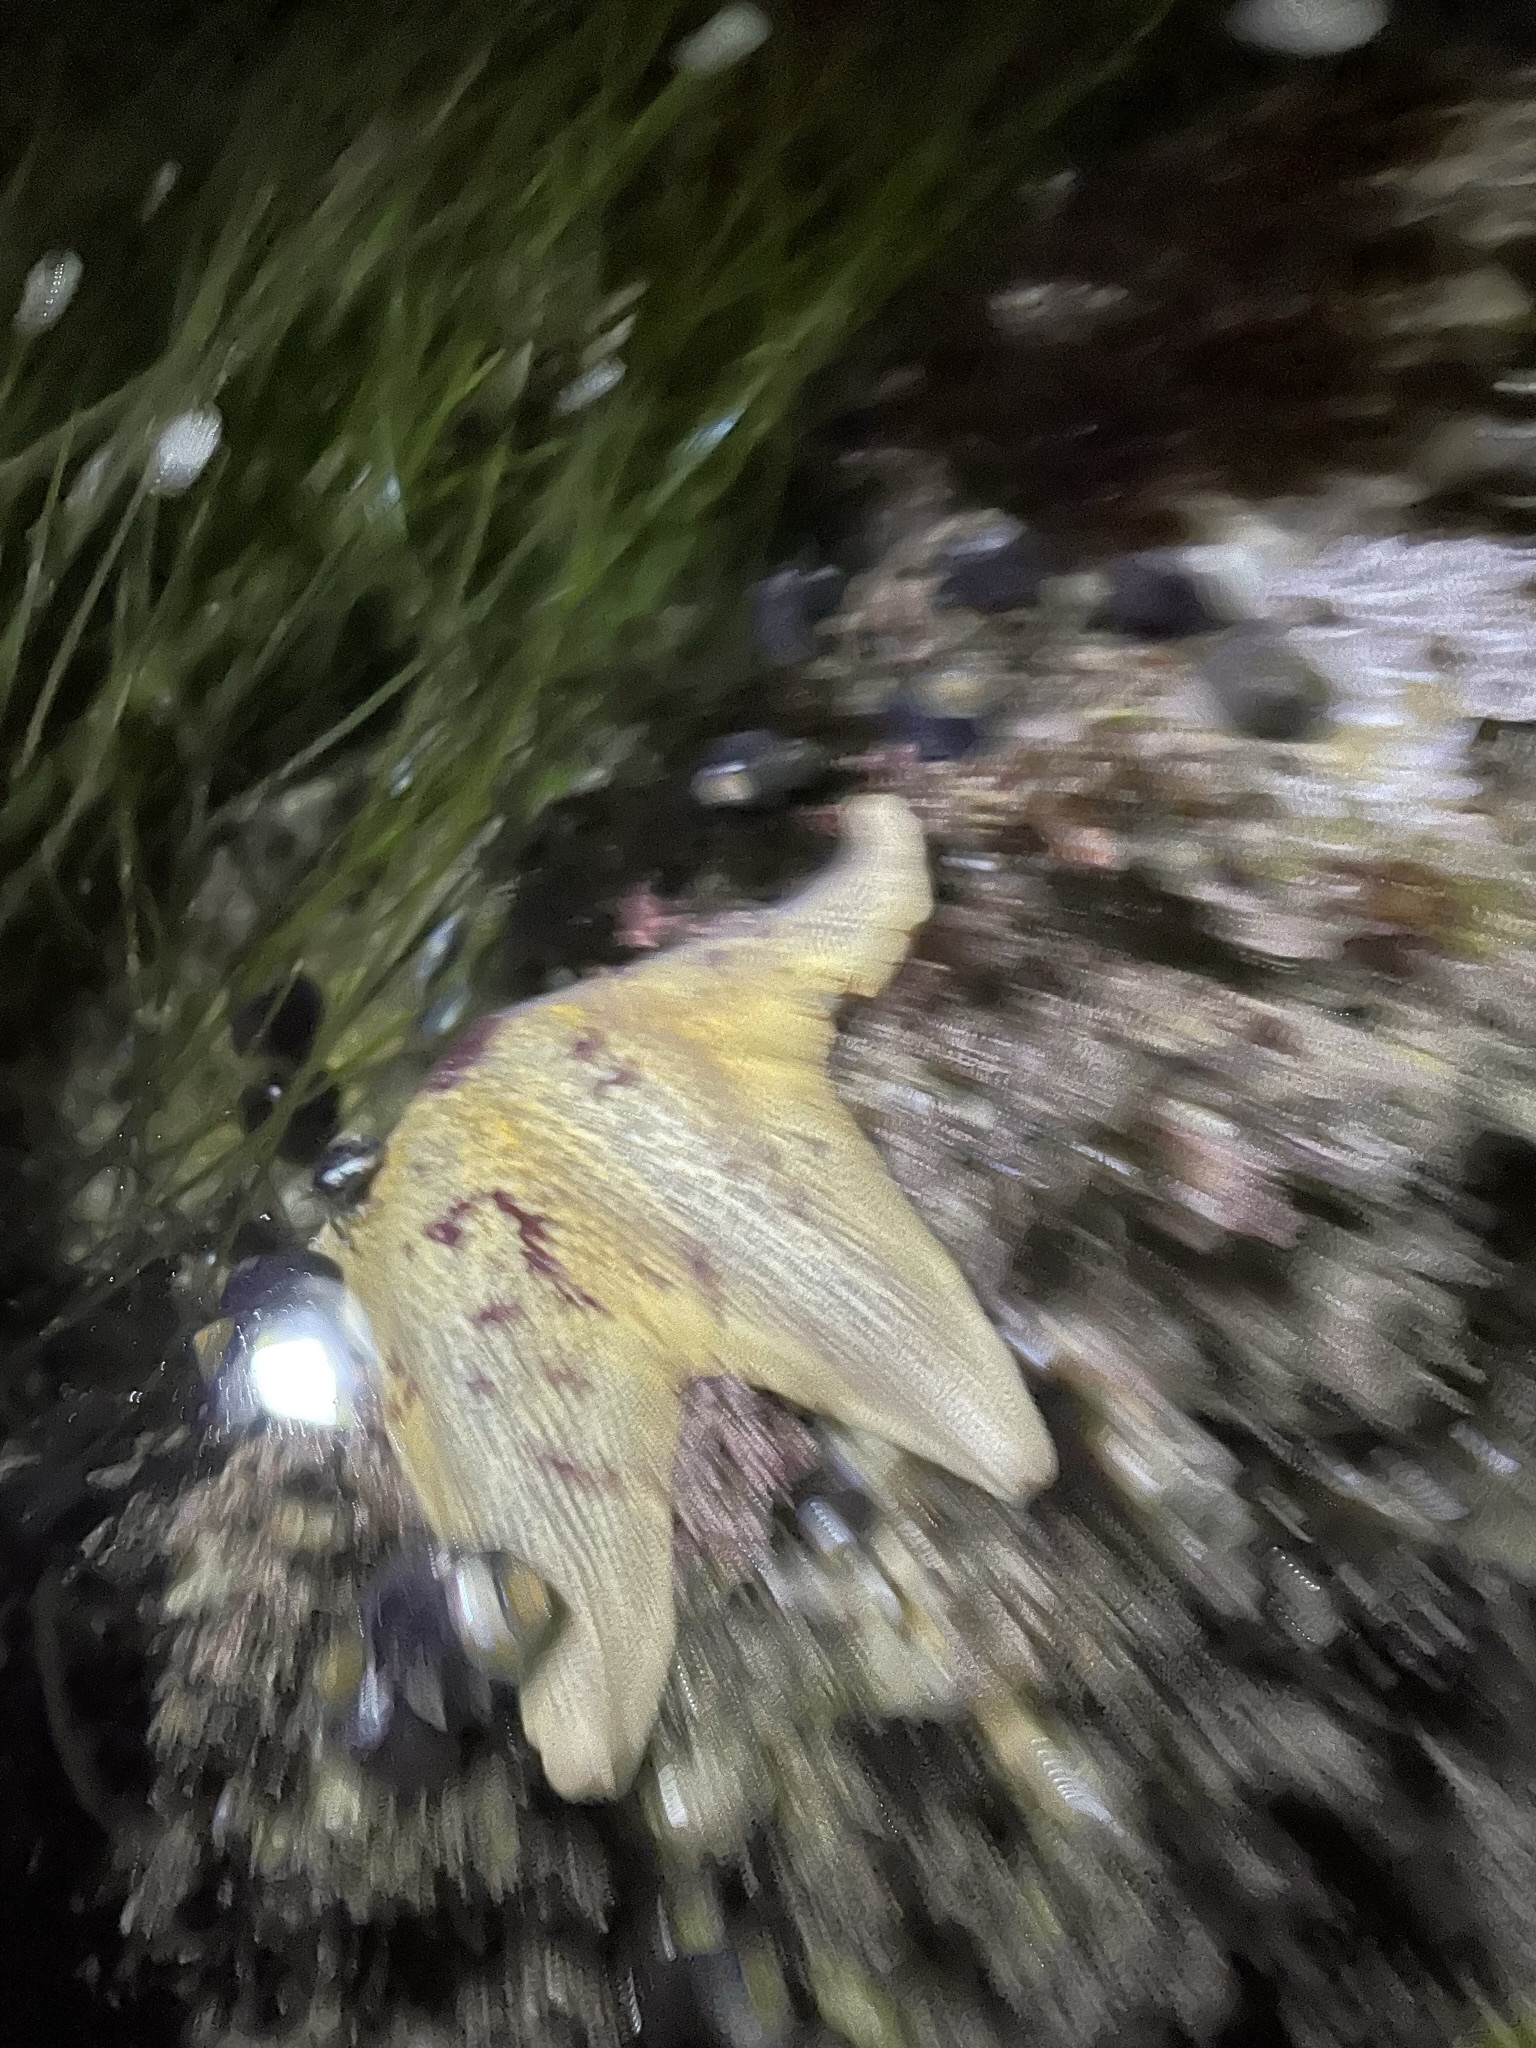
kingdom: Animalia
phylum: Echinodermata
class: Asteroidea
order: Valvatida
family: Asterinidae
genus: Patiria
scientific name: Patiria miniata
